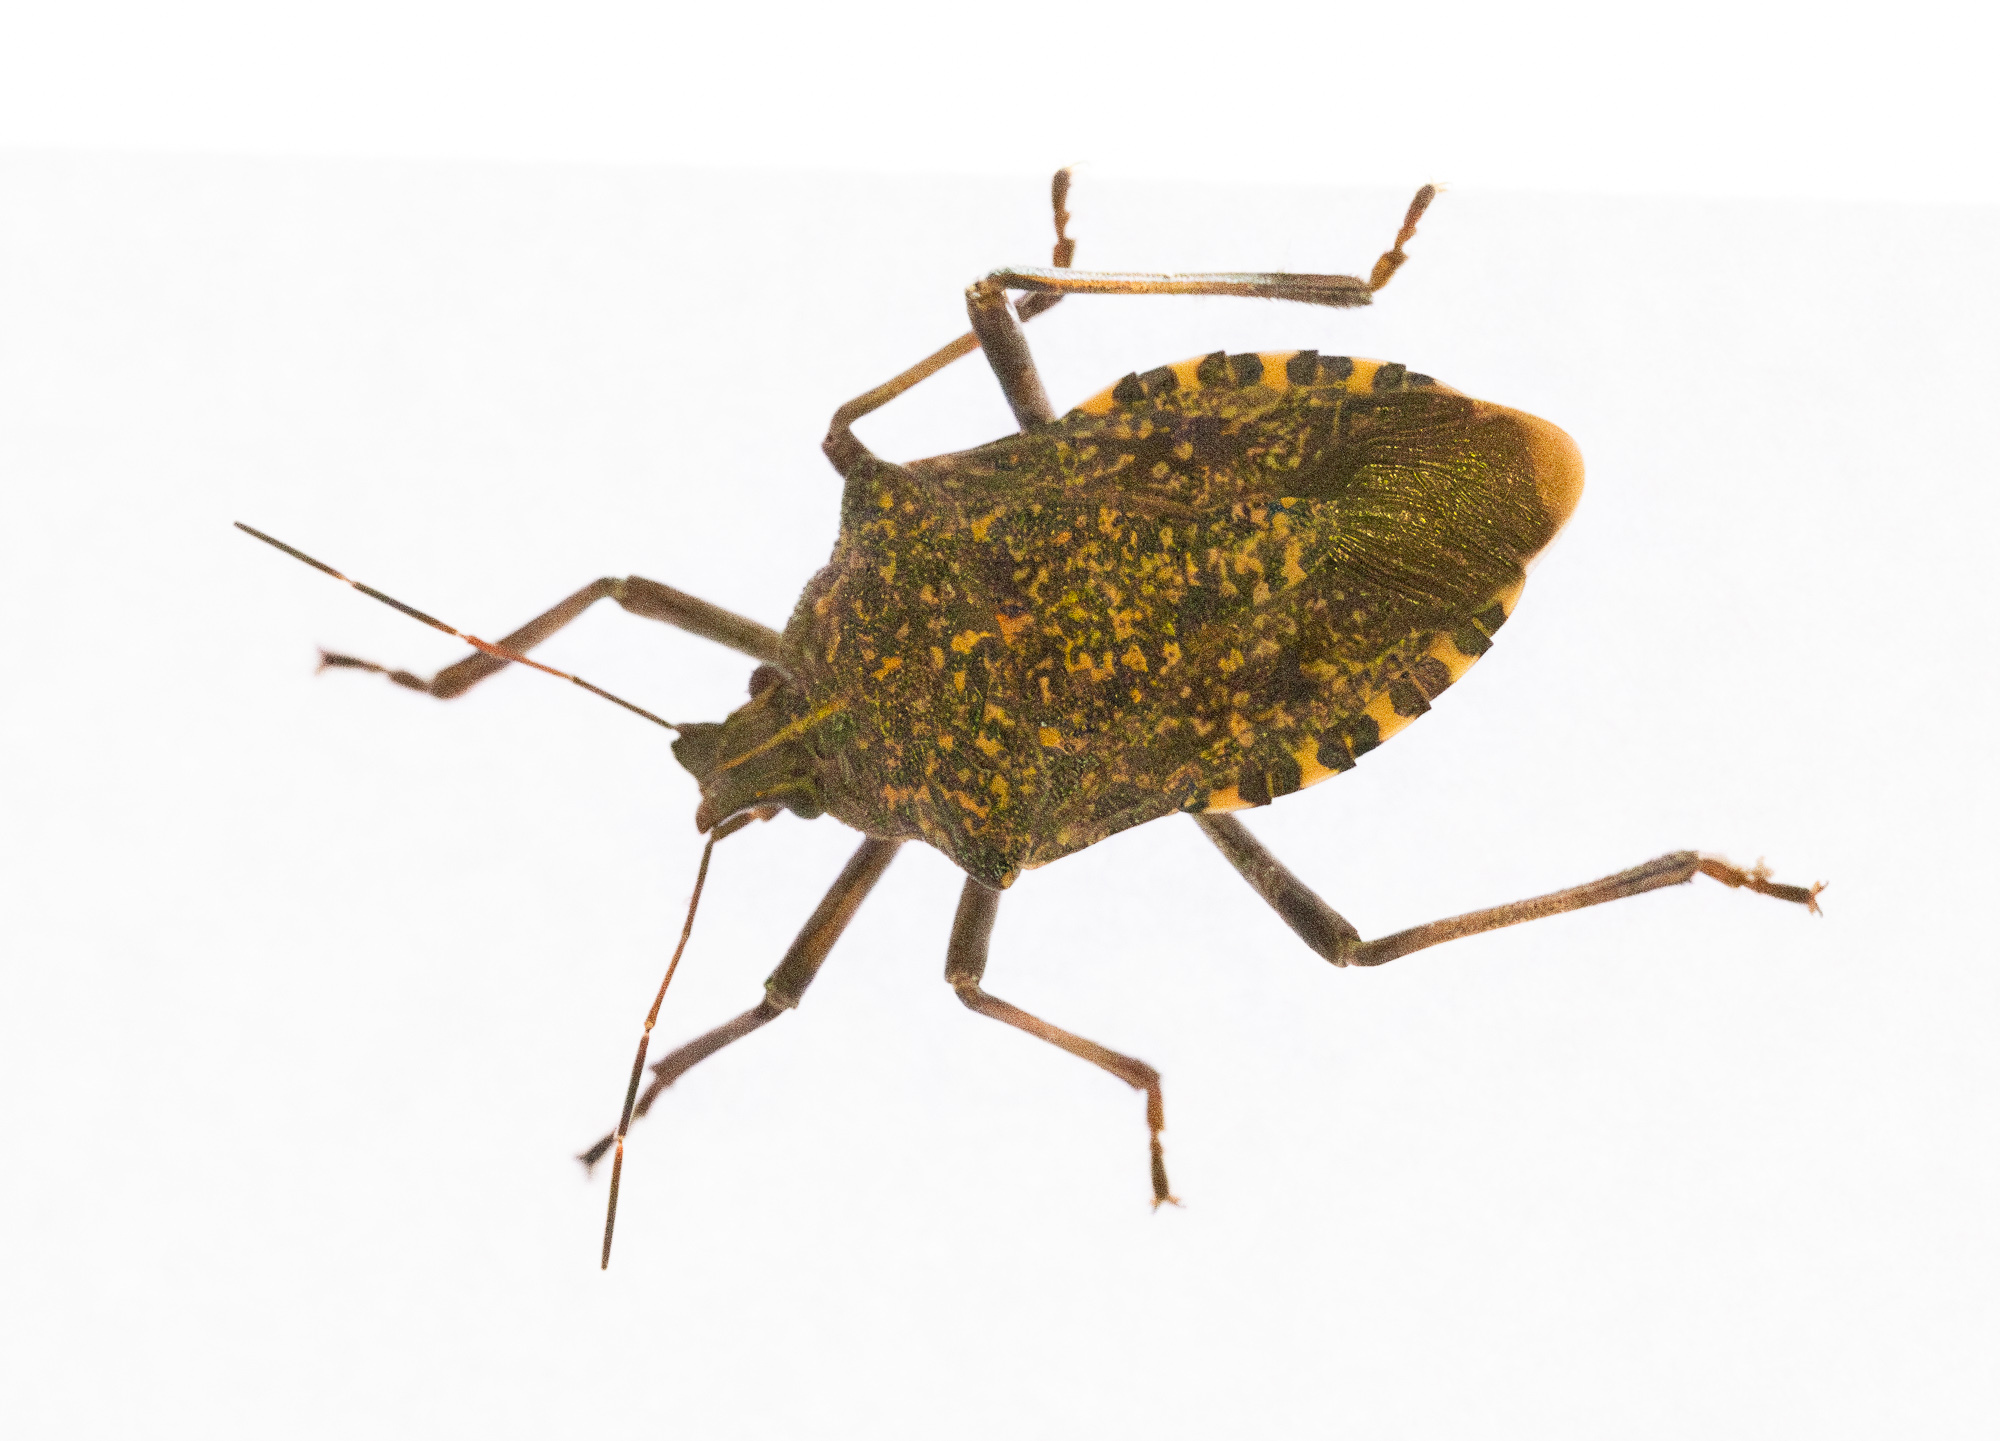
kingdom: Animalia
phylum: Arthropoda
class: Insecta
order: Hemiptera
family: Pentatomidae
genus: Apodiphus
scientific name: Apodiphus amygdali
